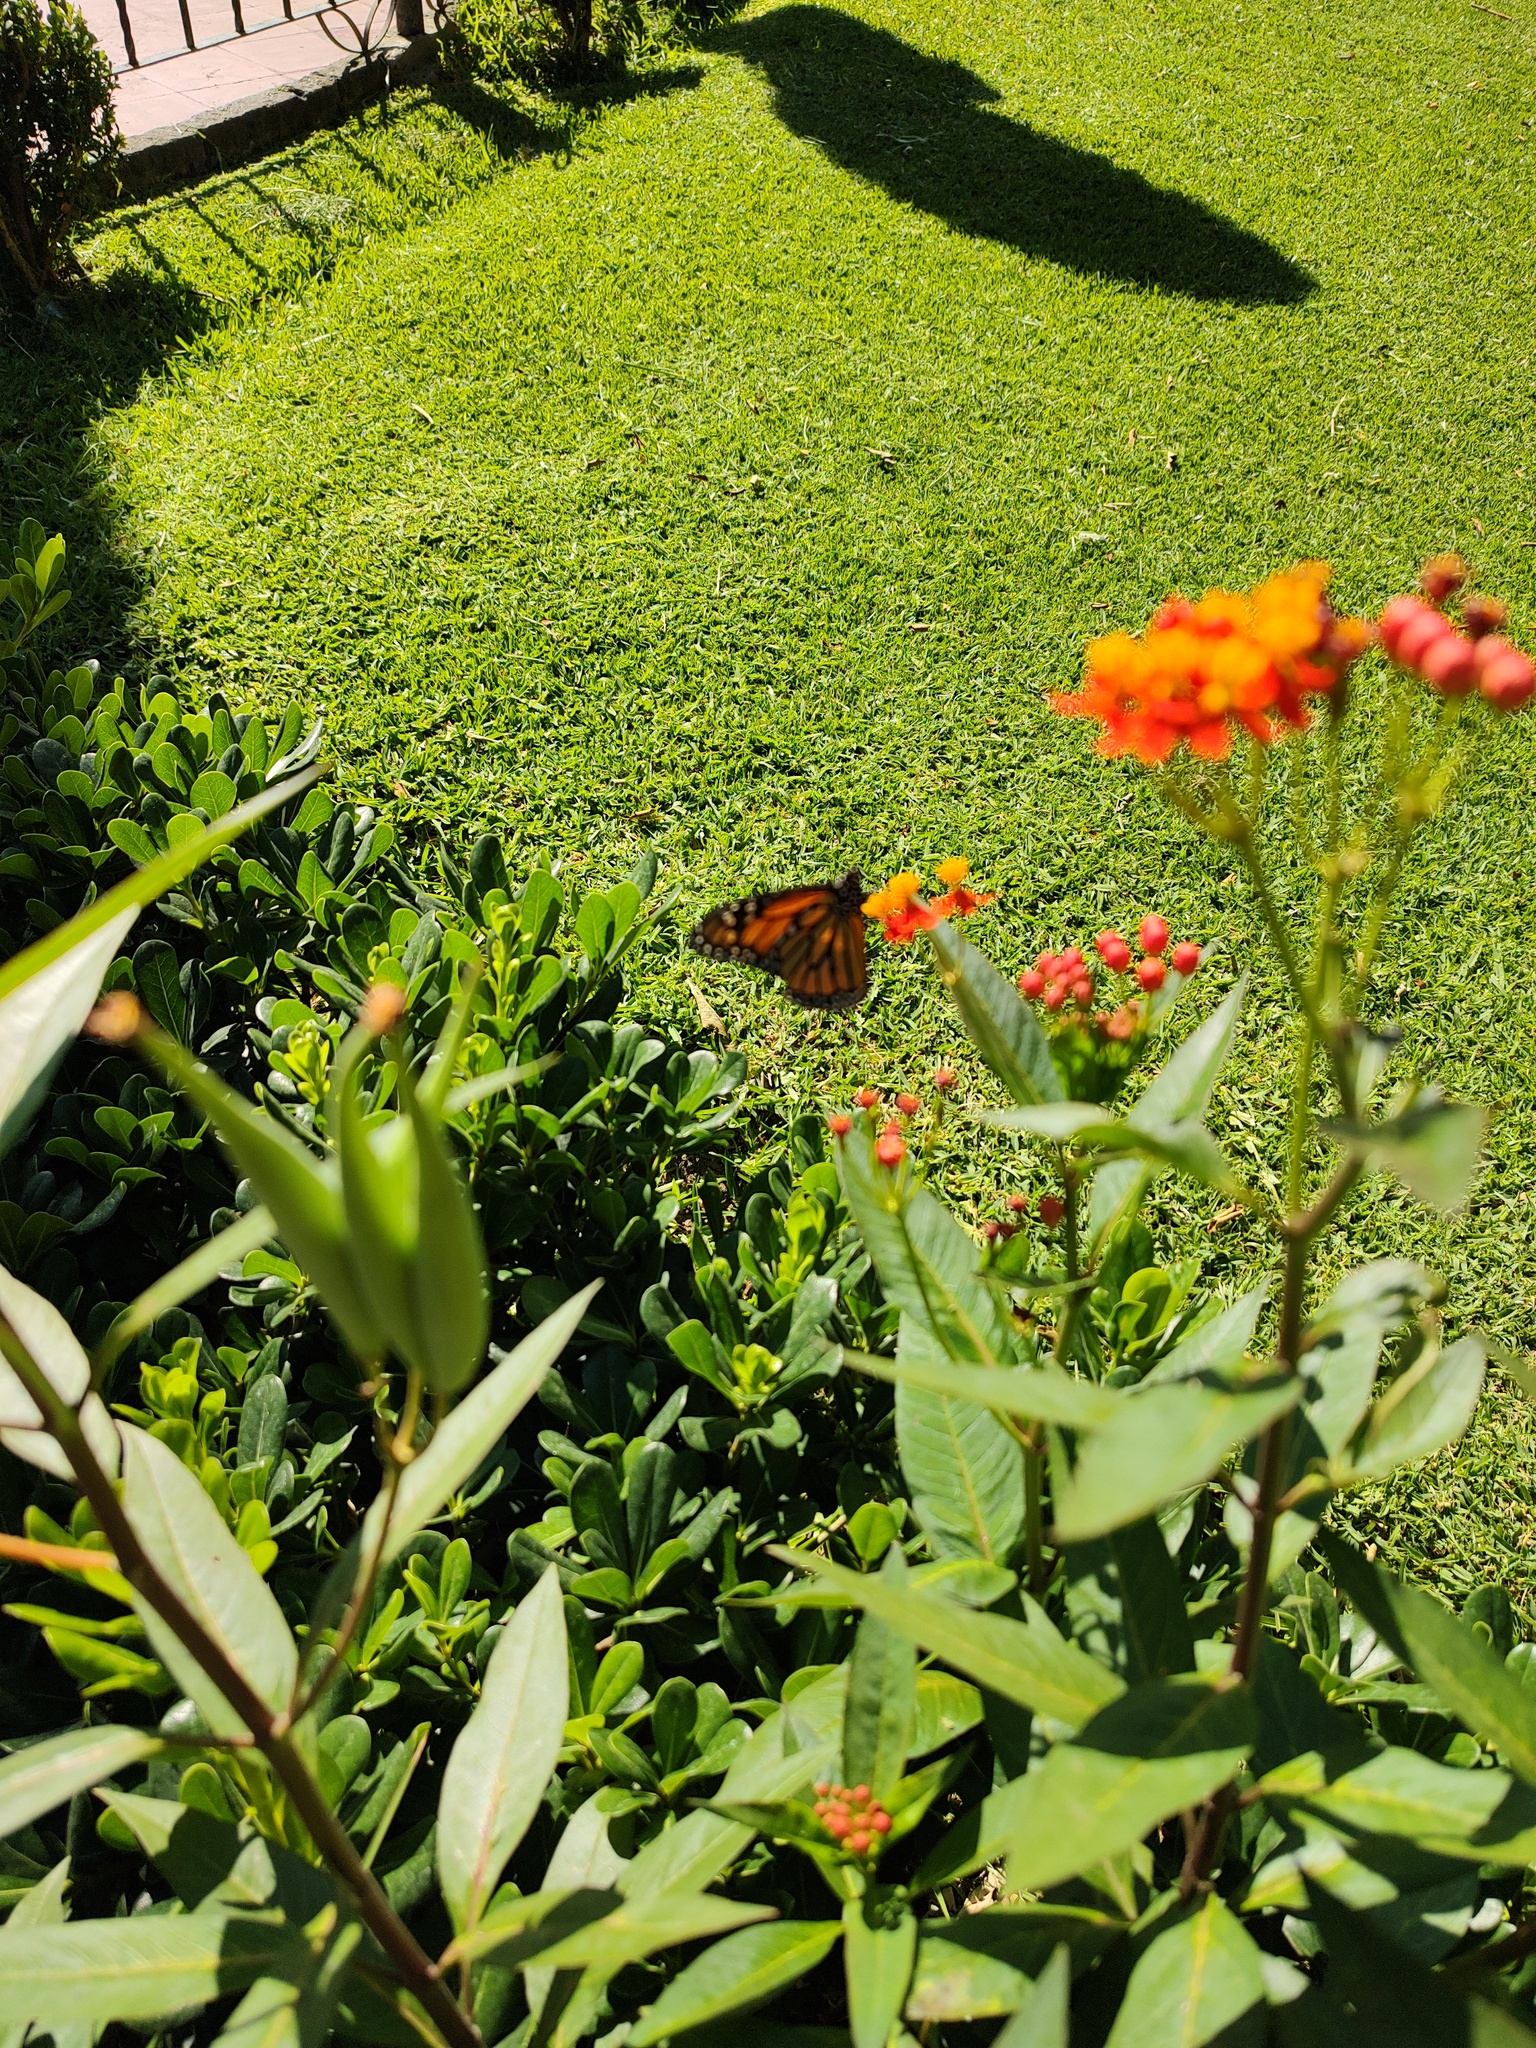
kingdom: Animalia
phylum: Arthropoda
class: Insecta
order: Lepidoptera
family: Nymphalidae
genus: Danaus
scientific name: Danaus plexippus
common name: Monarch
